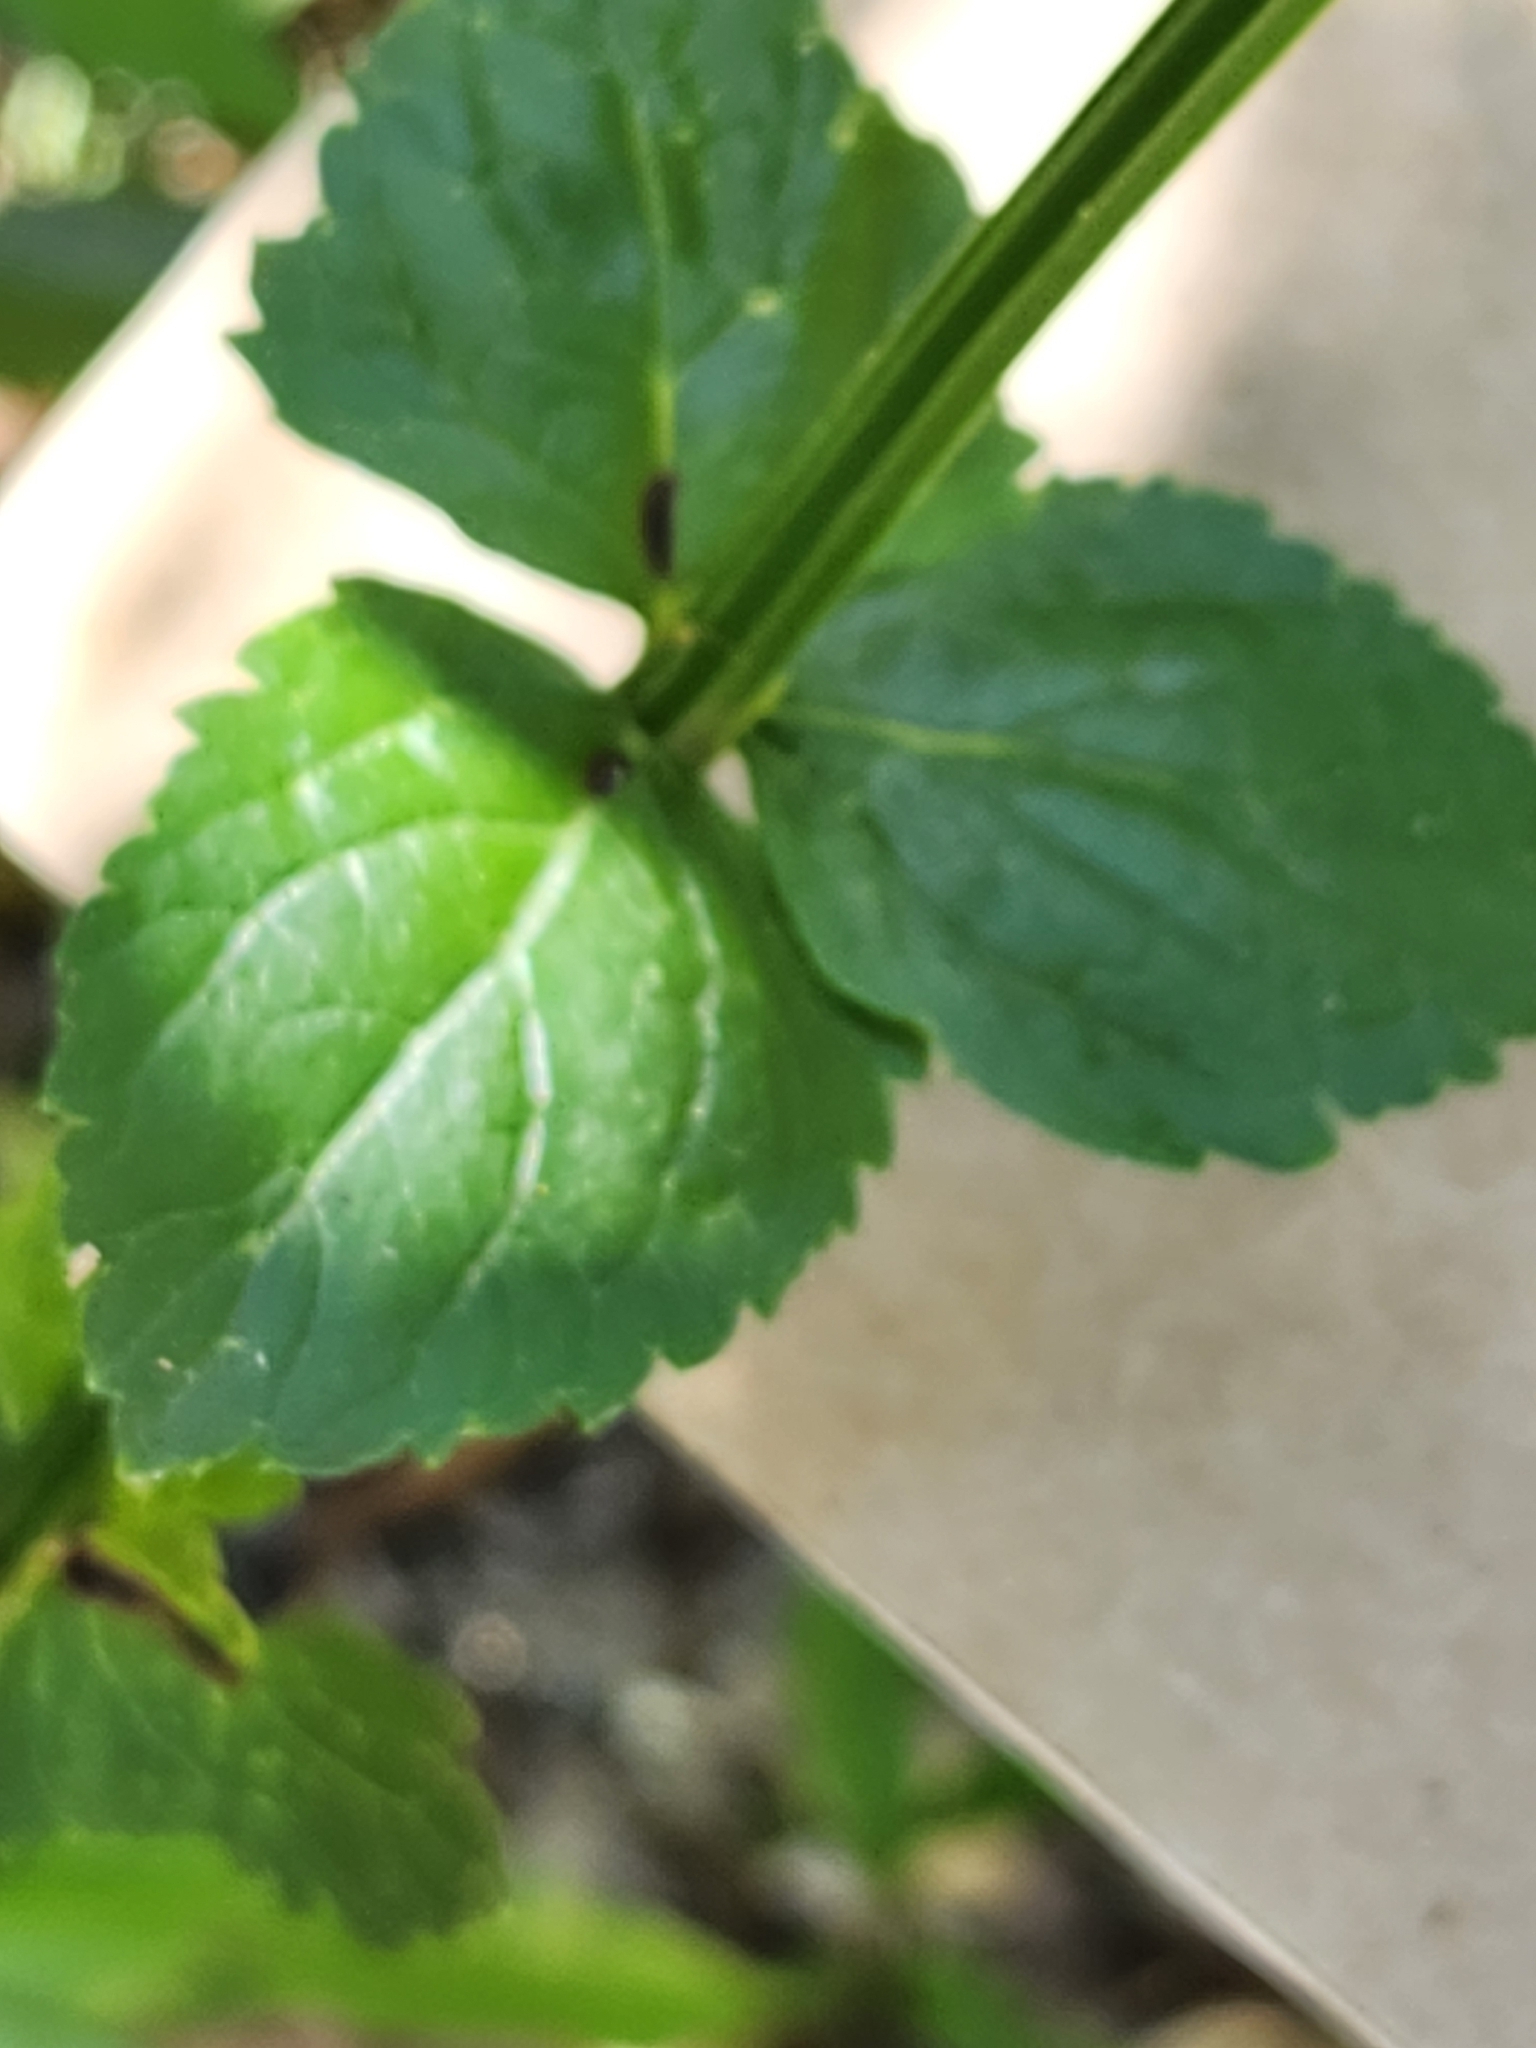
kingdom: Plantae
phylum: Tracheophyta
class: Magnoliopsida
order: Lamiales
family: Plantaginaceae
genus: Russelia
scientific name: Russelia sarmentosa
